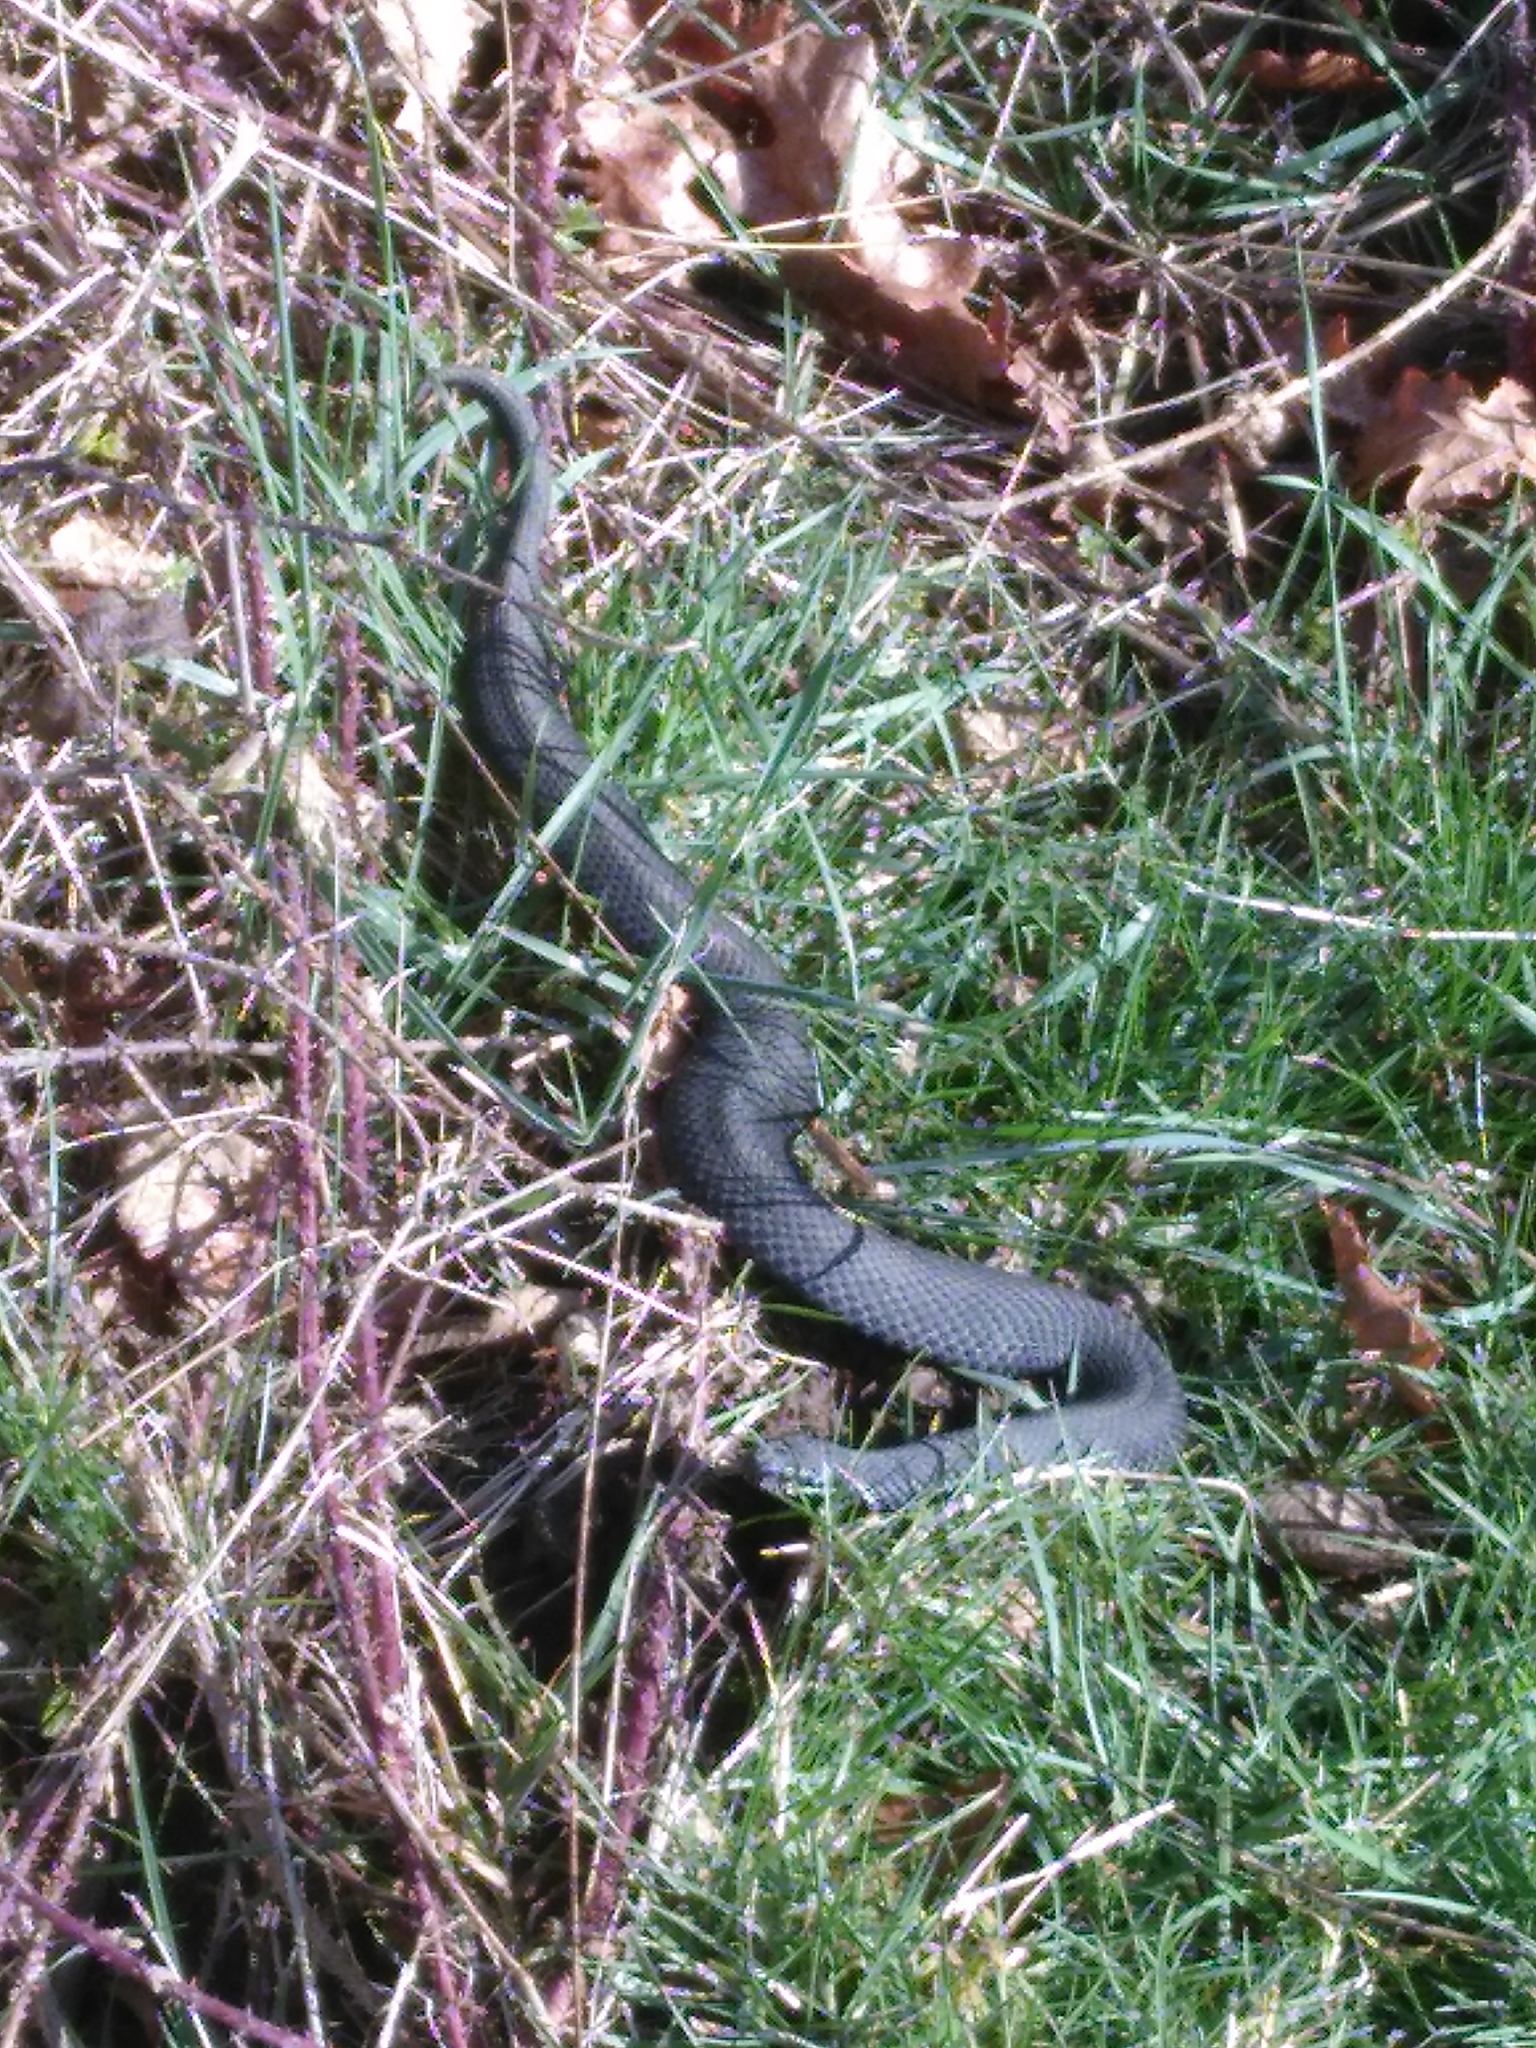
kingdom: Animalia
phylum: Chordata
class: Squamata
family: Viperidae
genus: Vipera
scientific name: Vipera berus
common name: Adder
